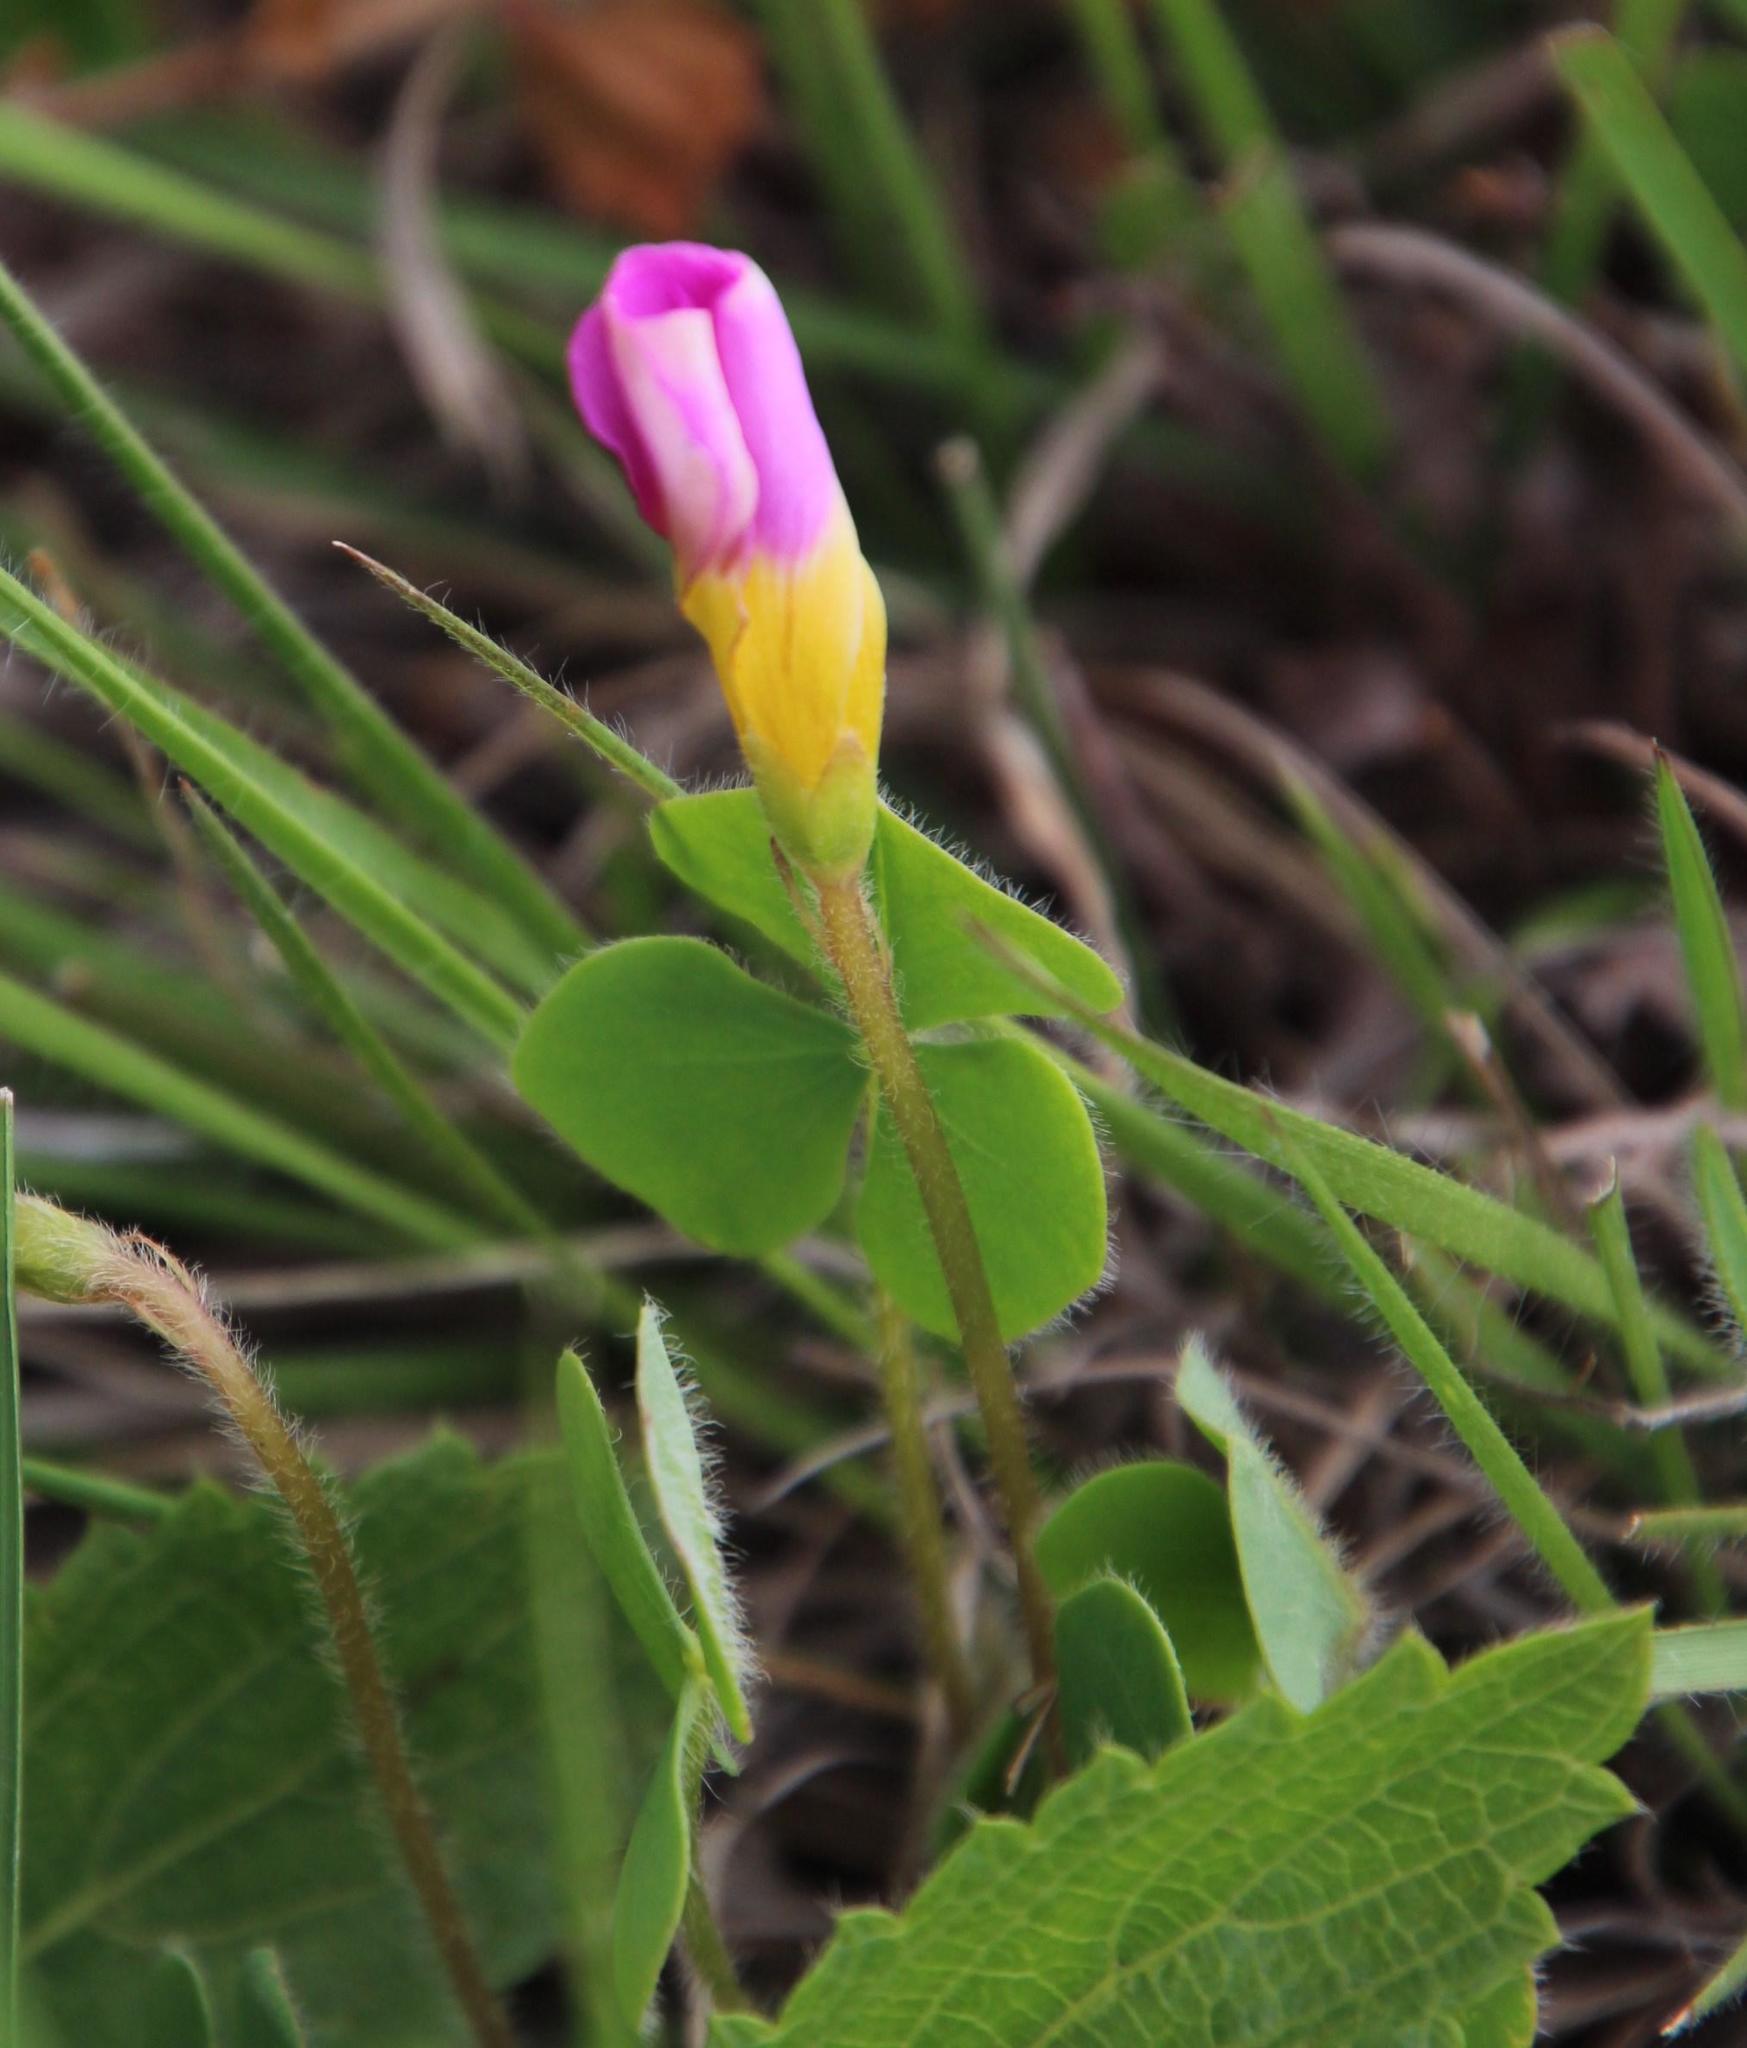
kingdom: Plantae
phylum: Tracheophyta
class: Magnoliopsida
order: Oxalidales
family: Oxalidaceae
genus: Oxalis
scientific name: Oxalis obliquifolia
